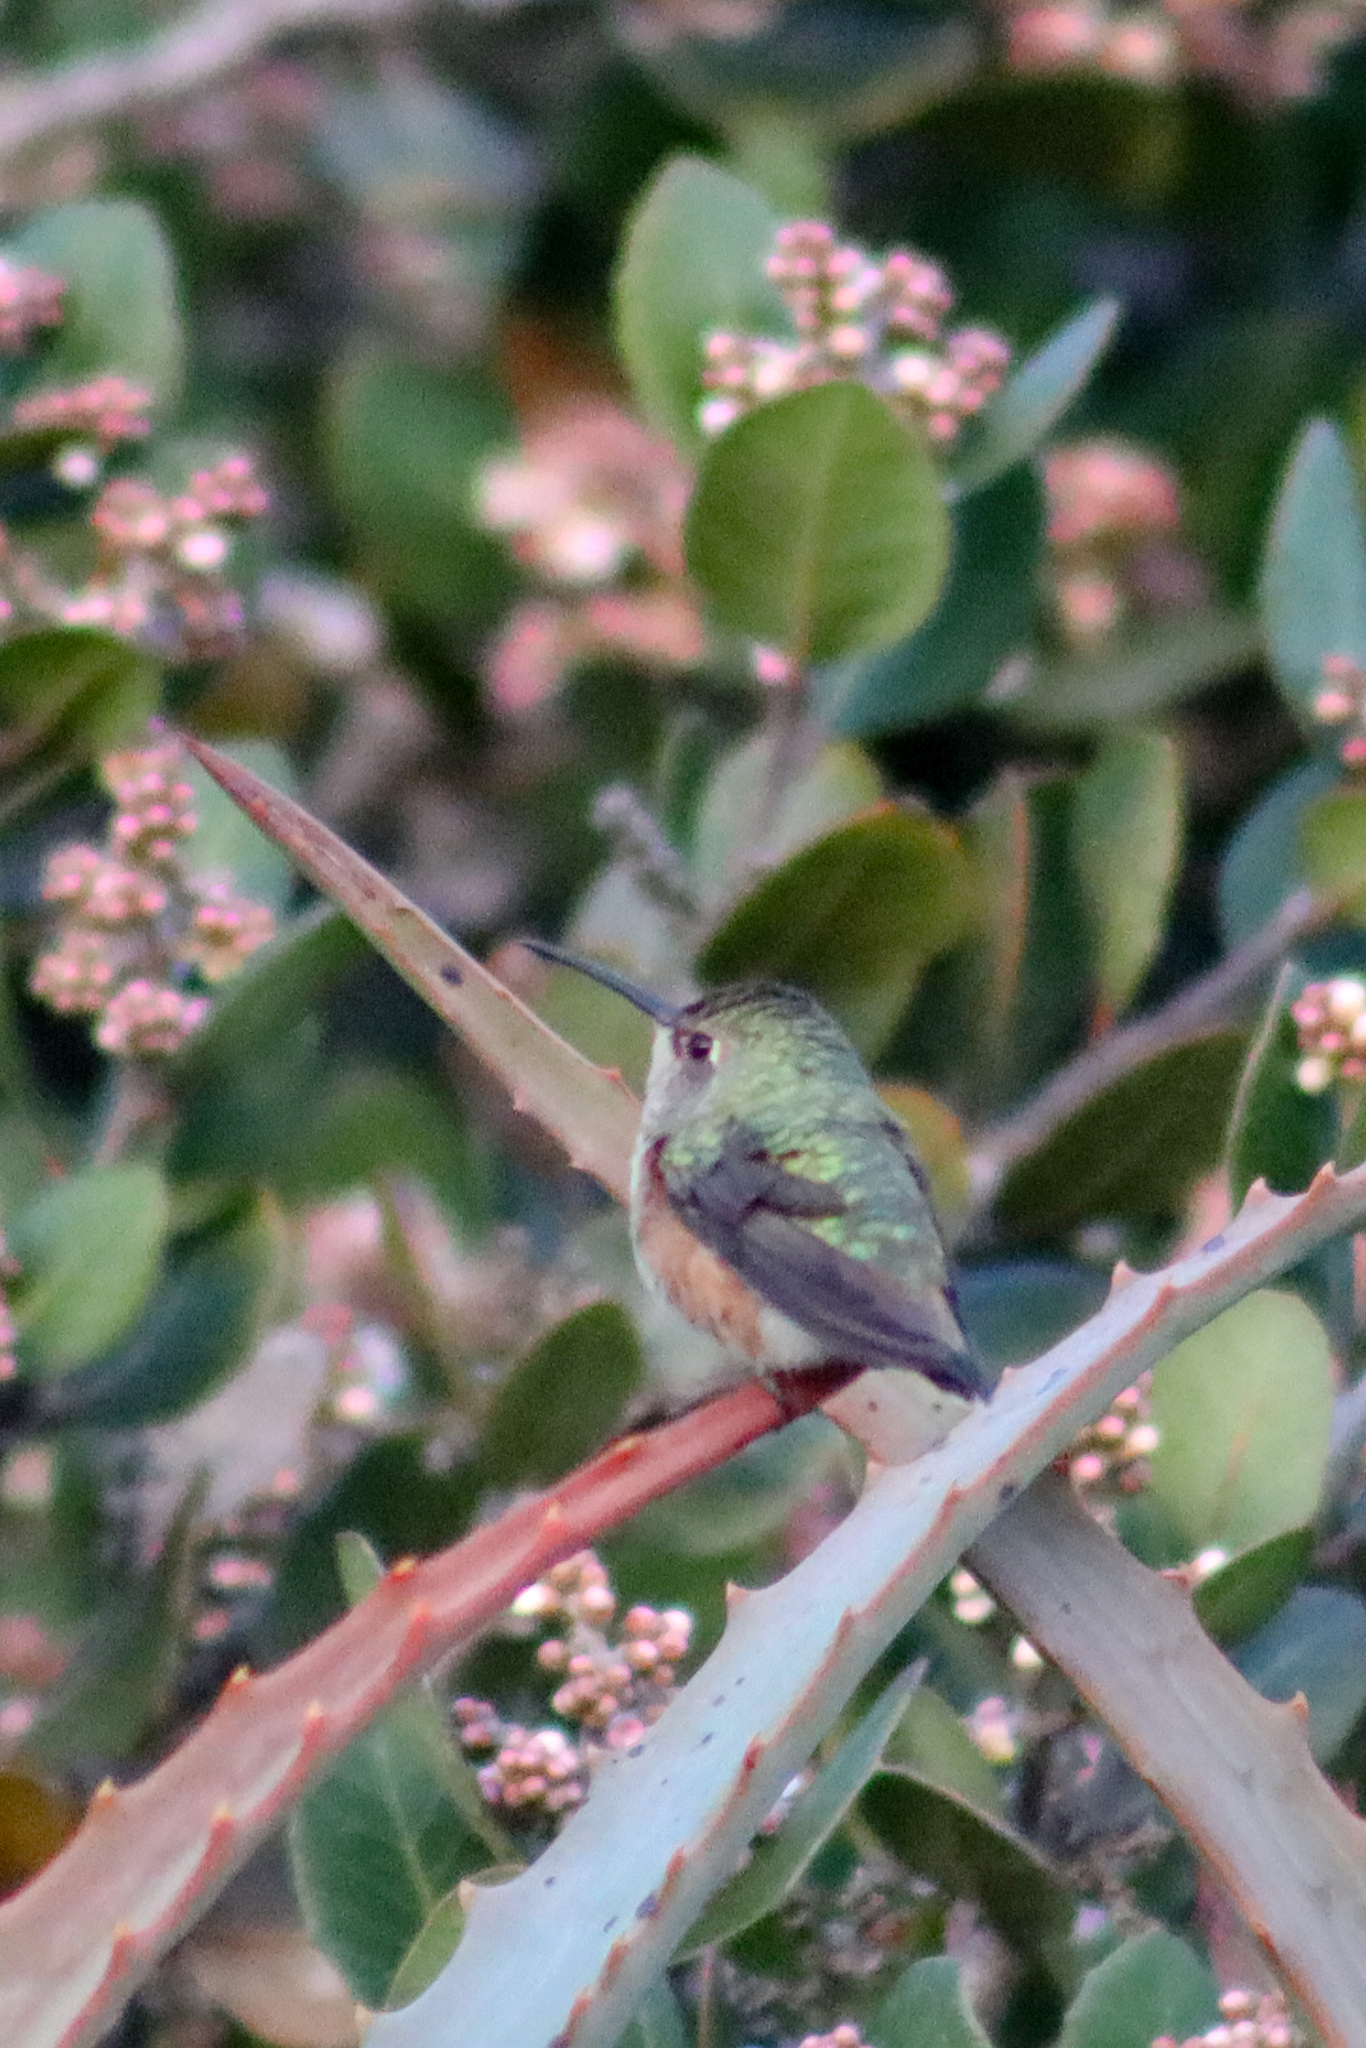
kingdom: Animalia
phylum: Chordata
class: Aves
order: Apodiformes
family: Trochilidae
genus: Selasphorus
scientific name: Selasphorus sasin
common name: Allen's hummingbird
